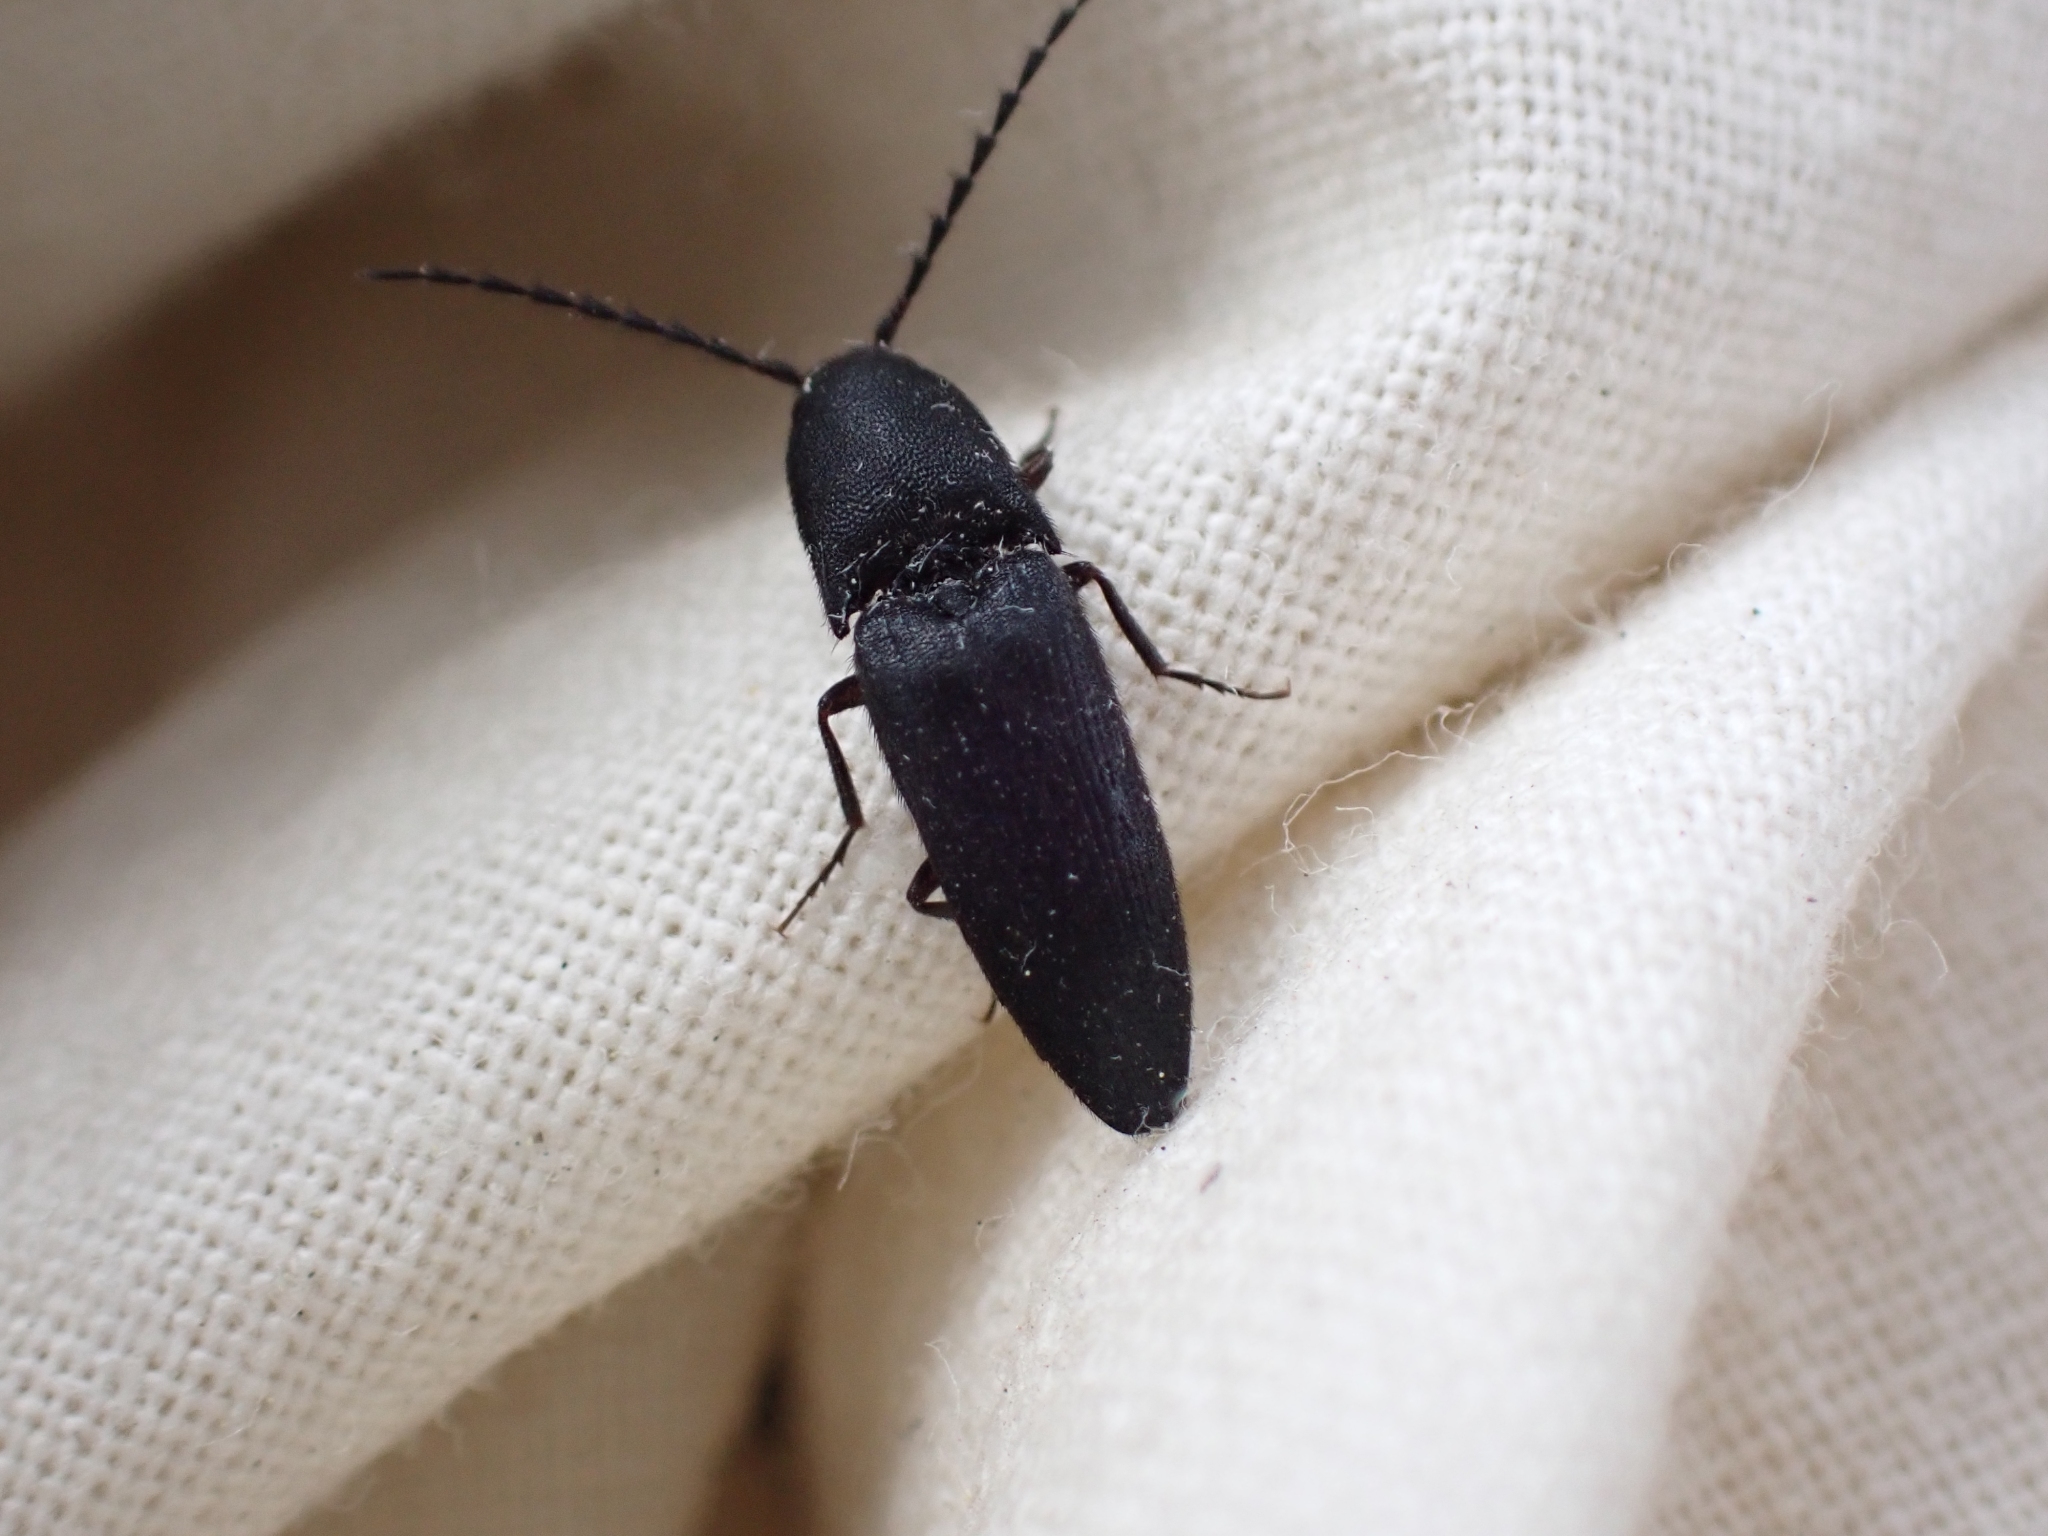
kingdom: Animalia
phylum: Arthropoda
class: Insecta
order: Coleoptera
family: Elateridae
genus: Megapenthes
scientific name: Megapenthes tartareus
